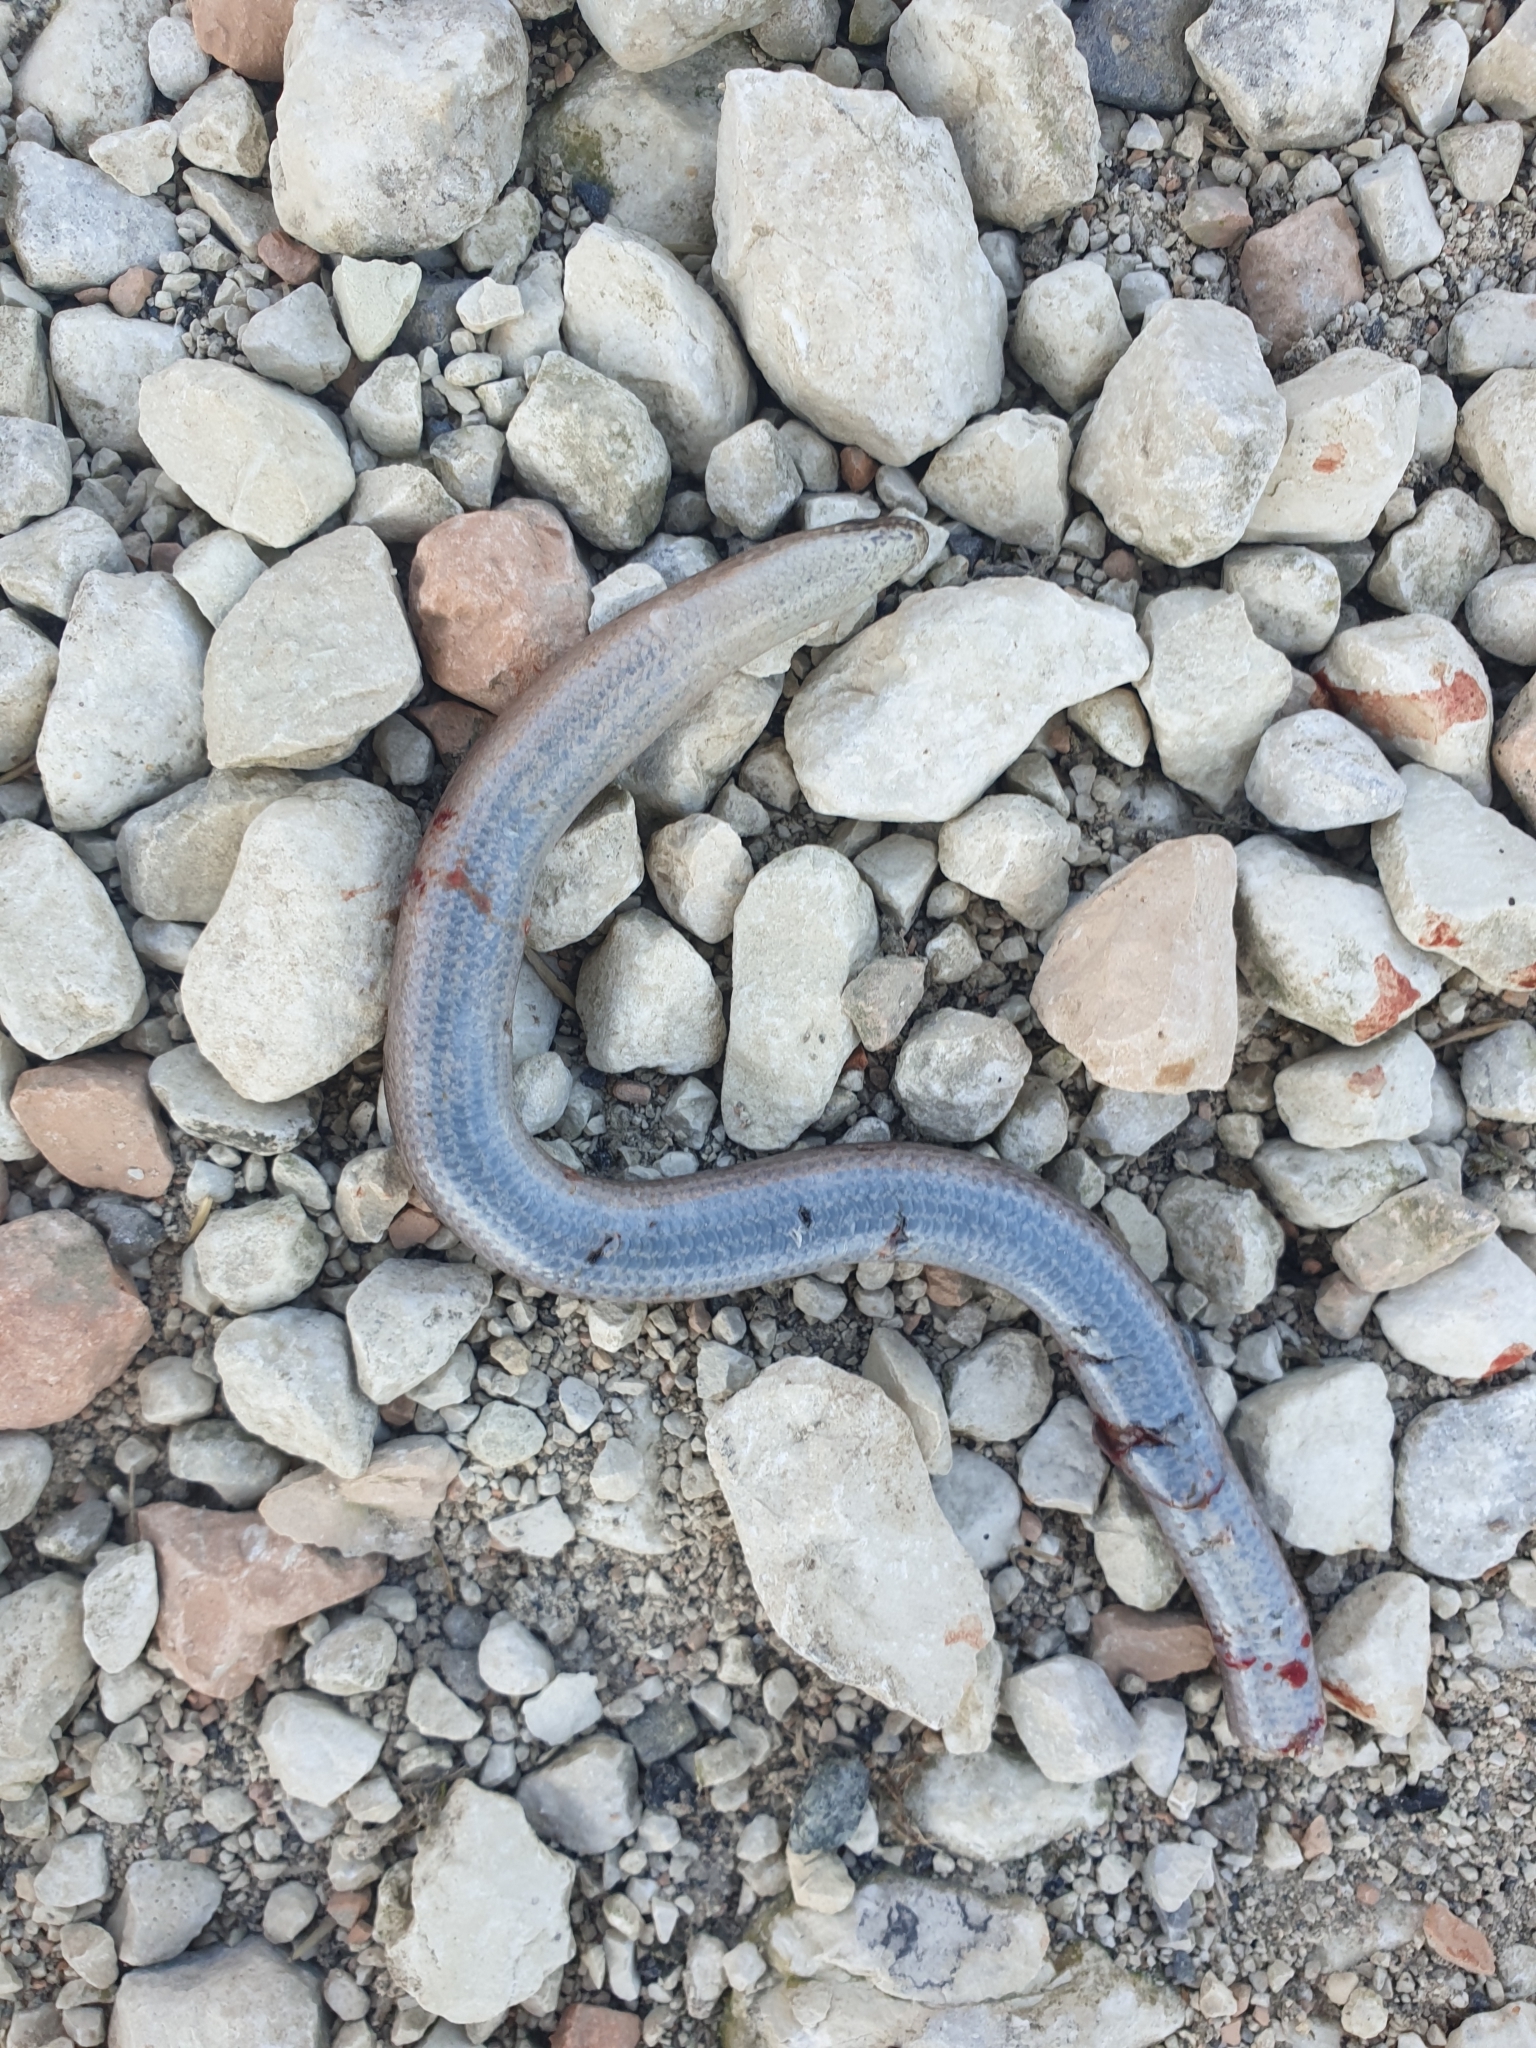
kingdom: Animalia
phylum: Chordata
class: Squamata
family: Anguidae
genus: Anguis
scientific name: Anguis fragilis
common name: Slow worm
